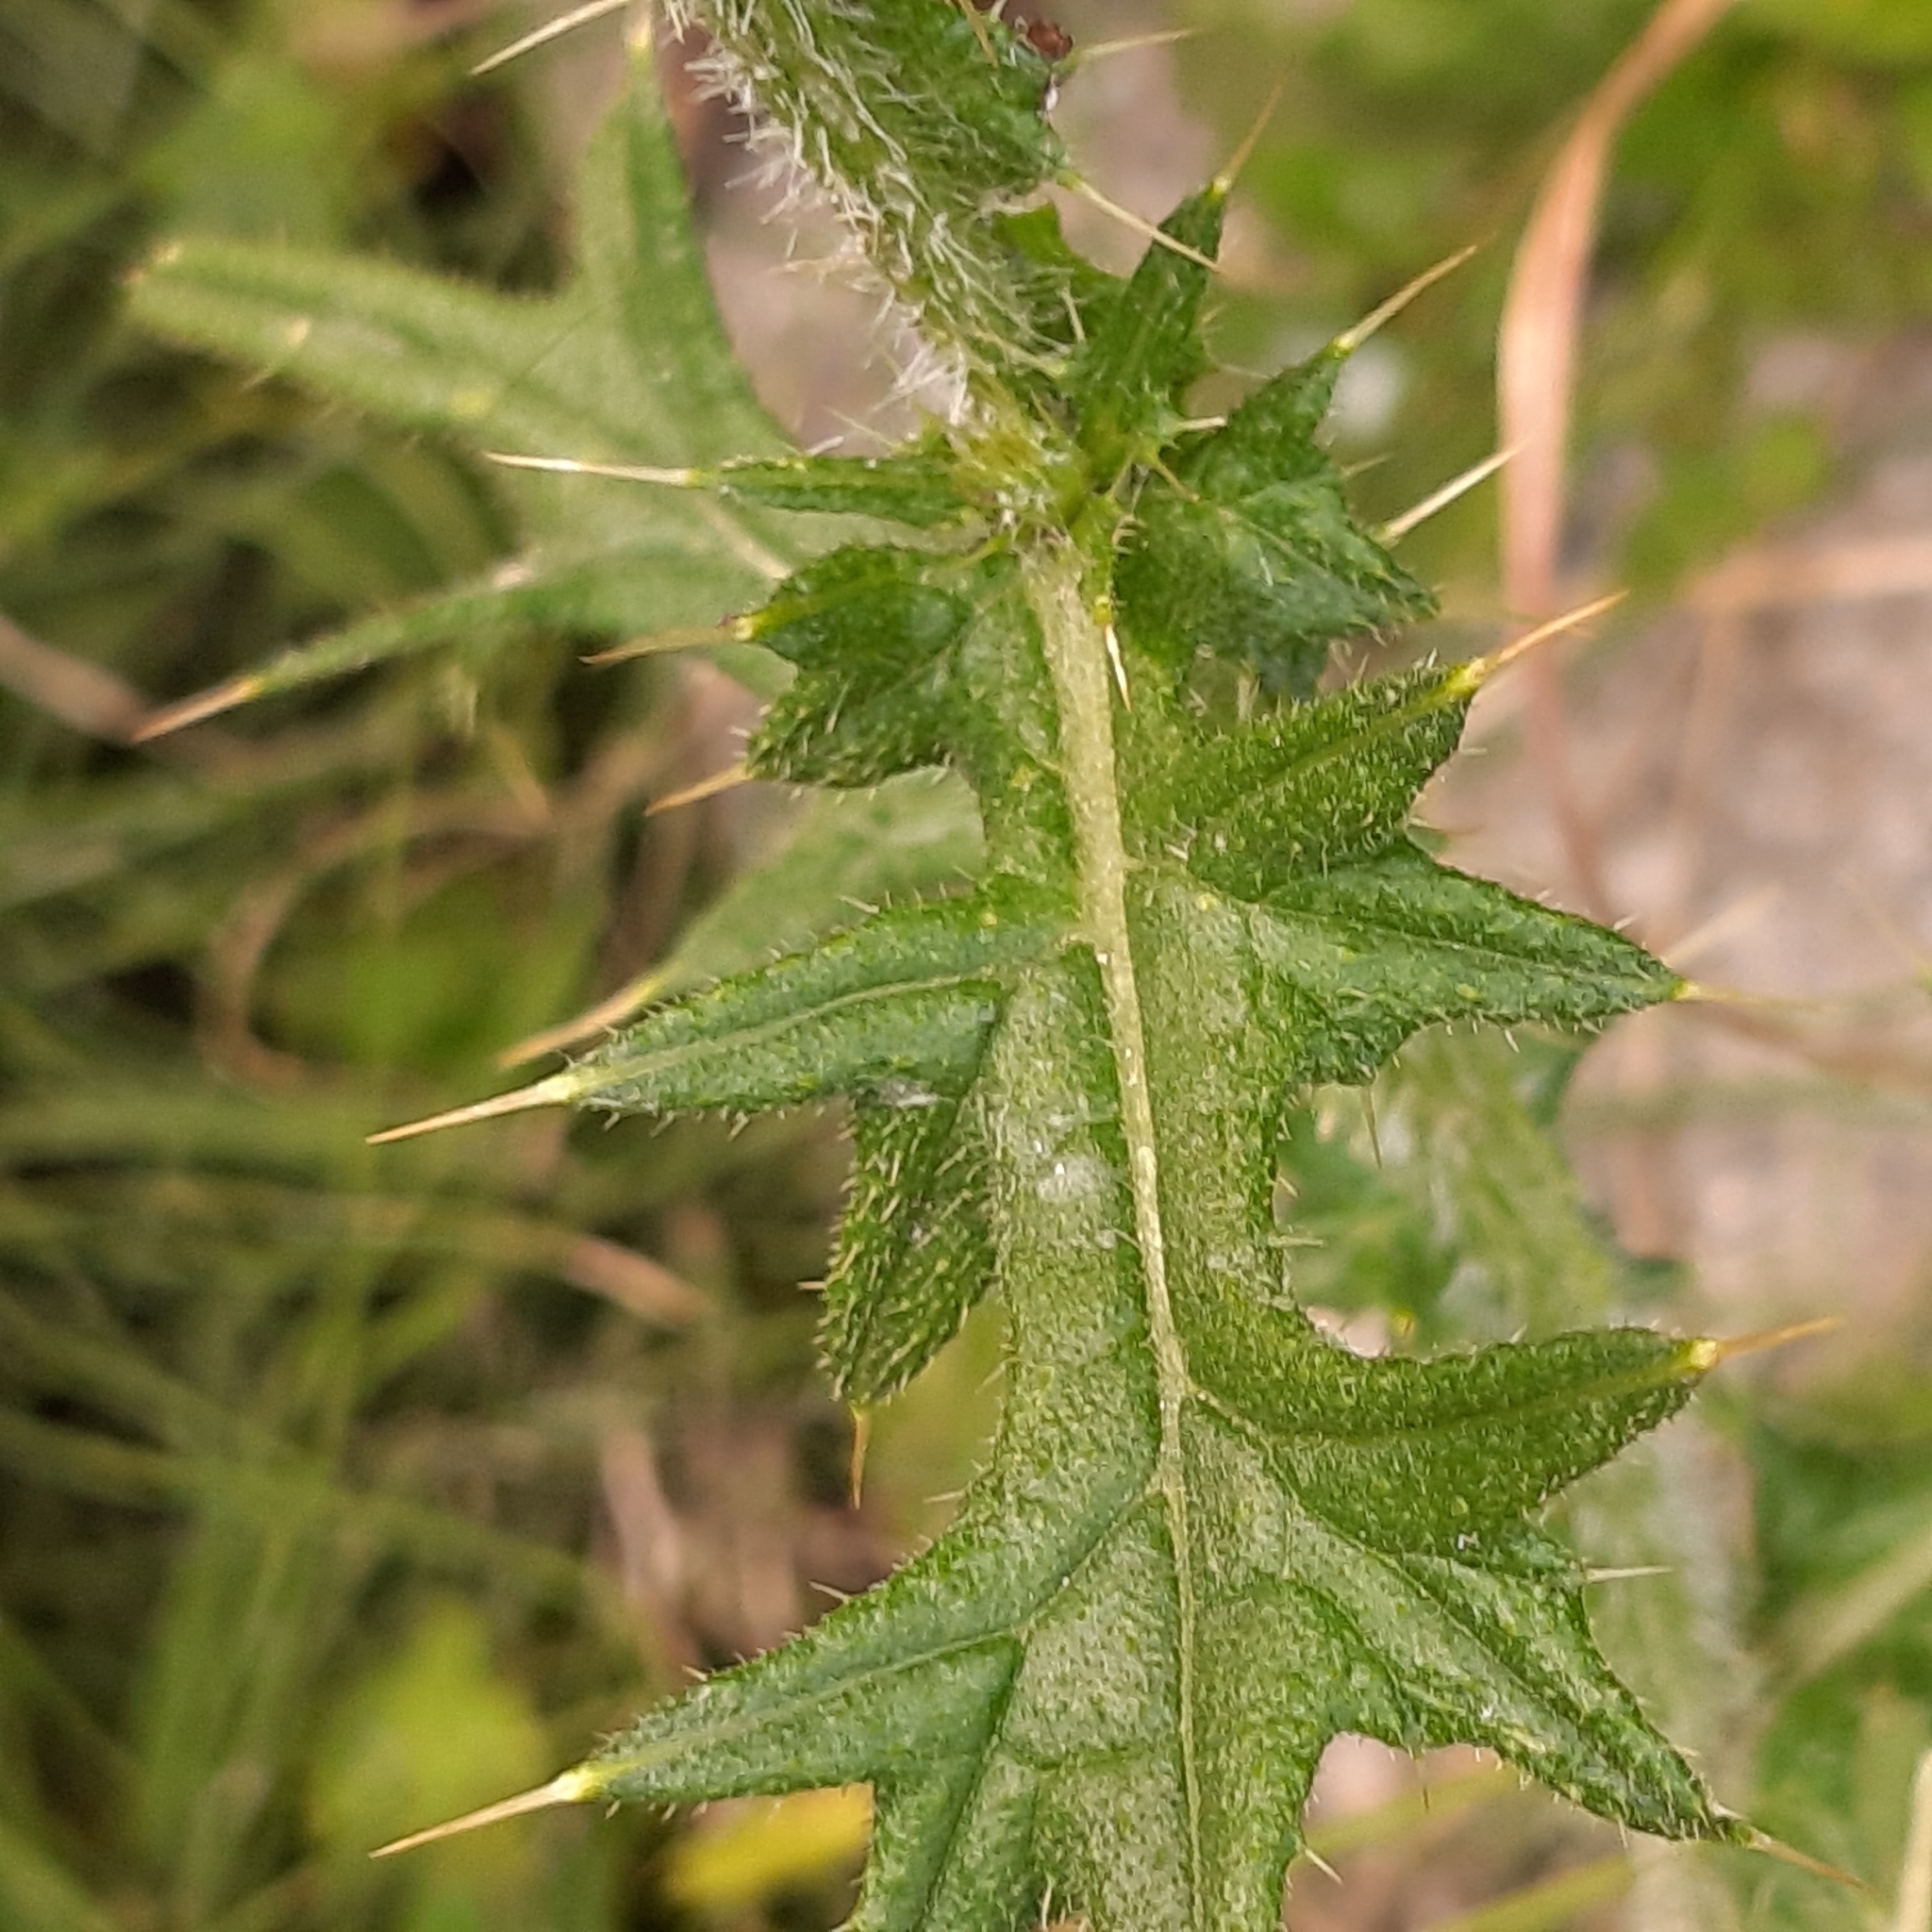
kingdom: Plantae
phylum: Tracheophyta
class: Magnoliopsida
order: Asterales
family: Asteraceae
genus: Cirsium
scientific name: Cirsium vulgare
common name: Bull thistle
